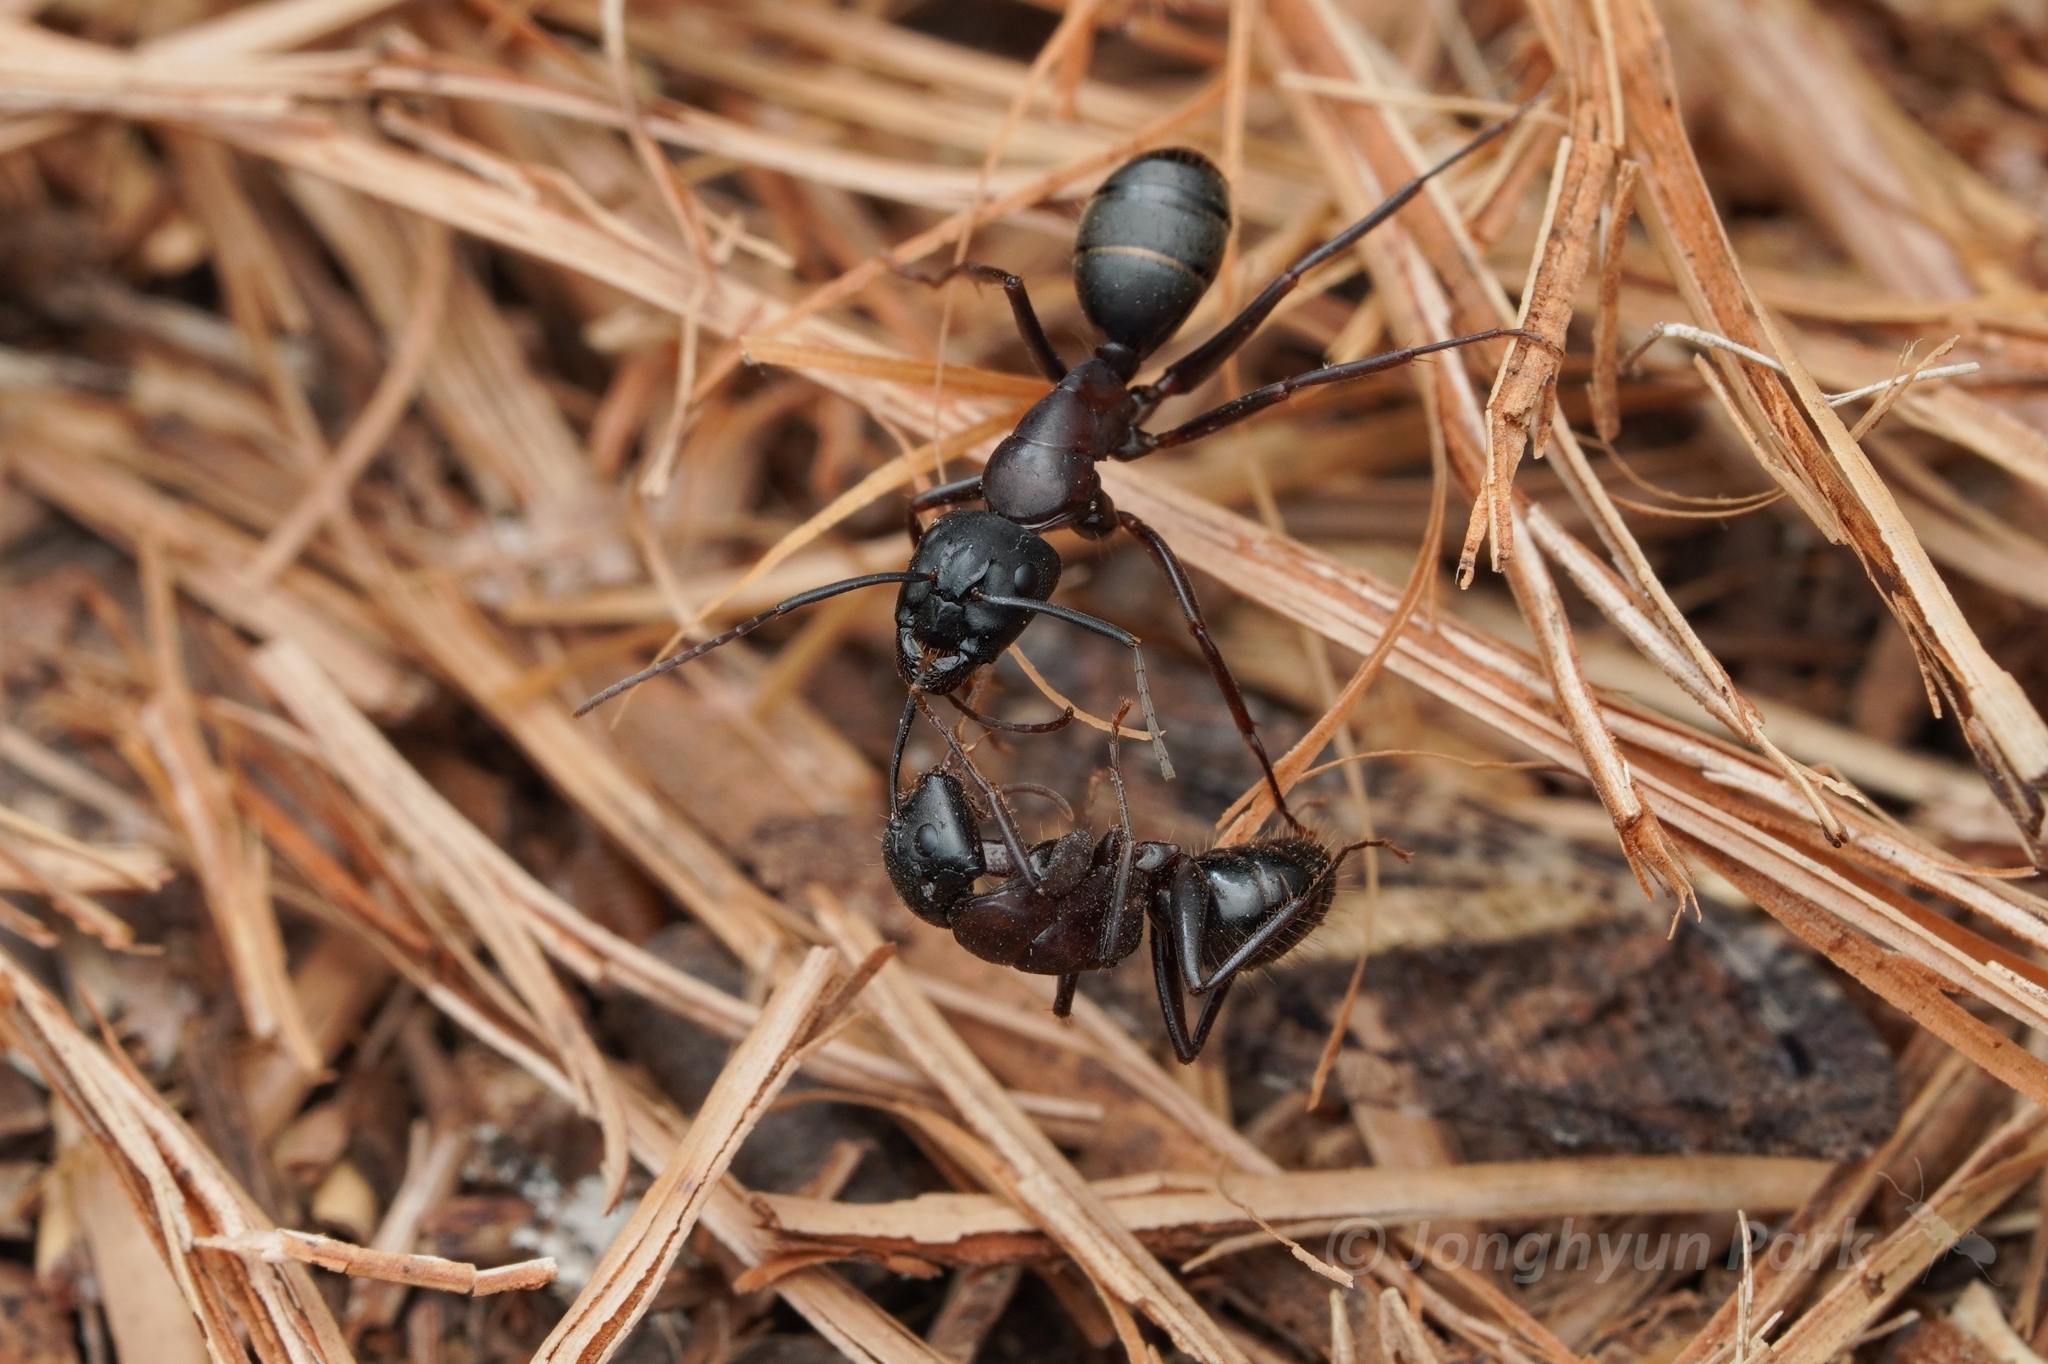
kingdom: Animalia
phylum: Arthropoda
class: Insecta
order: Hymenoptera
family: Formicidae
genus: Camponotus
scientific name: Camponotus vicinus
